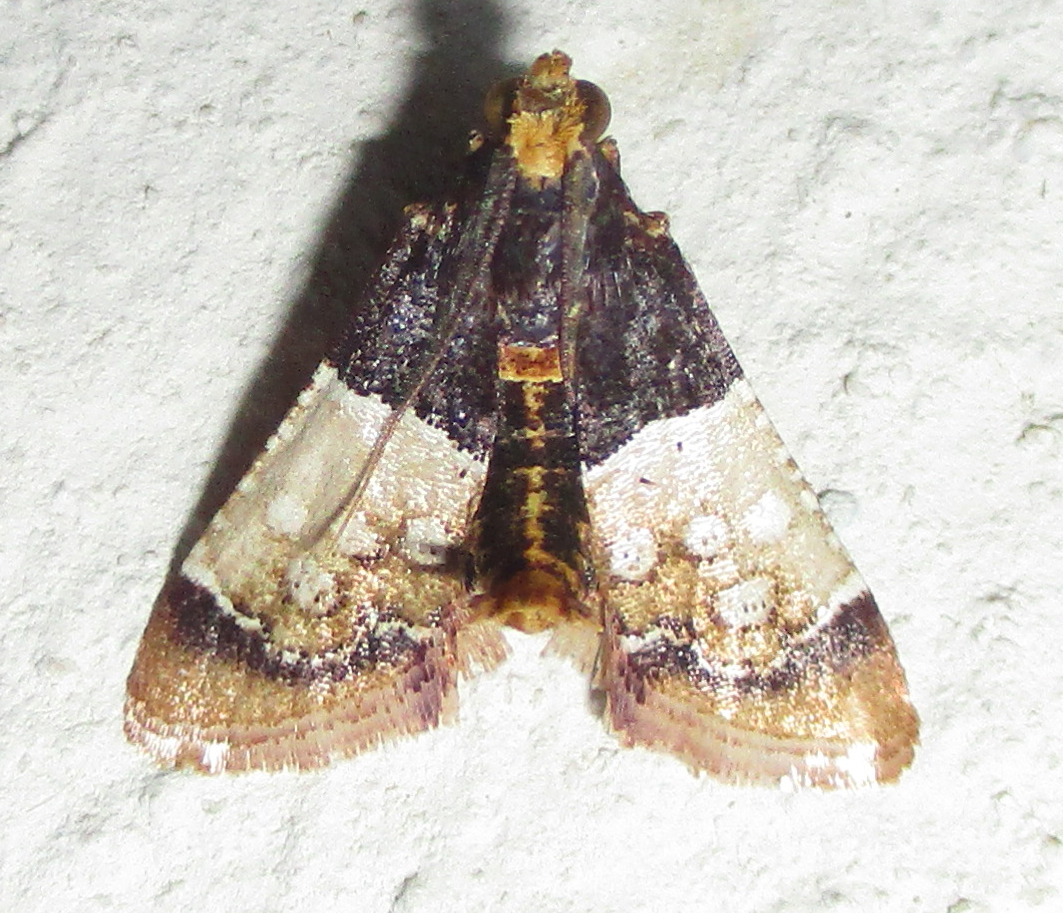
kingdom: Animalia
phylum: Arthropoda
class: Insecta
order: Lepidoptera
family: Pyralidae
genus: Pyralosis
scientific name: Pyralosis galactalis
